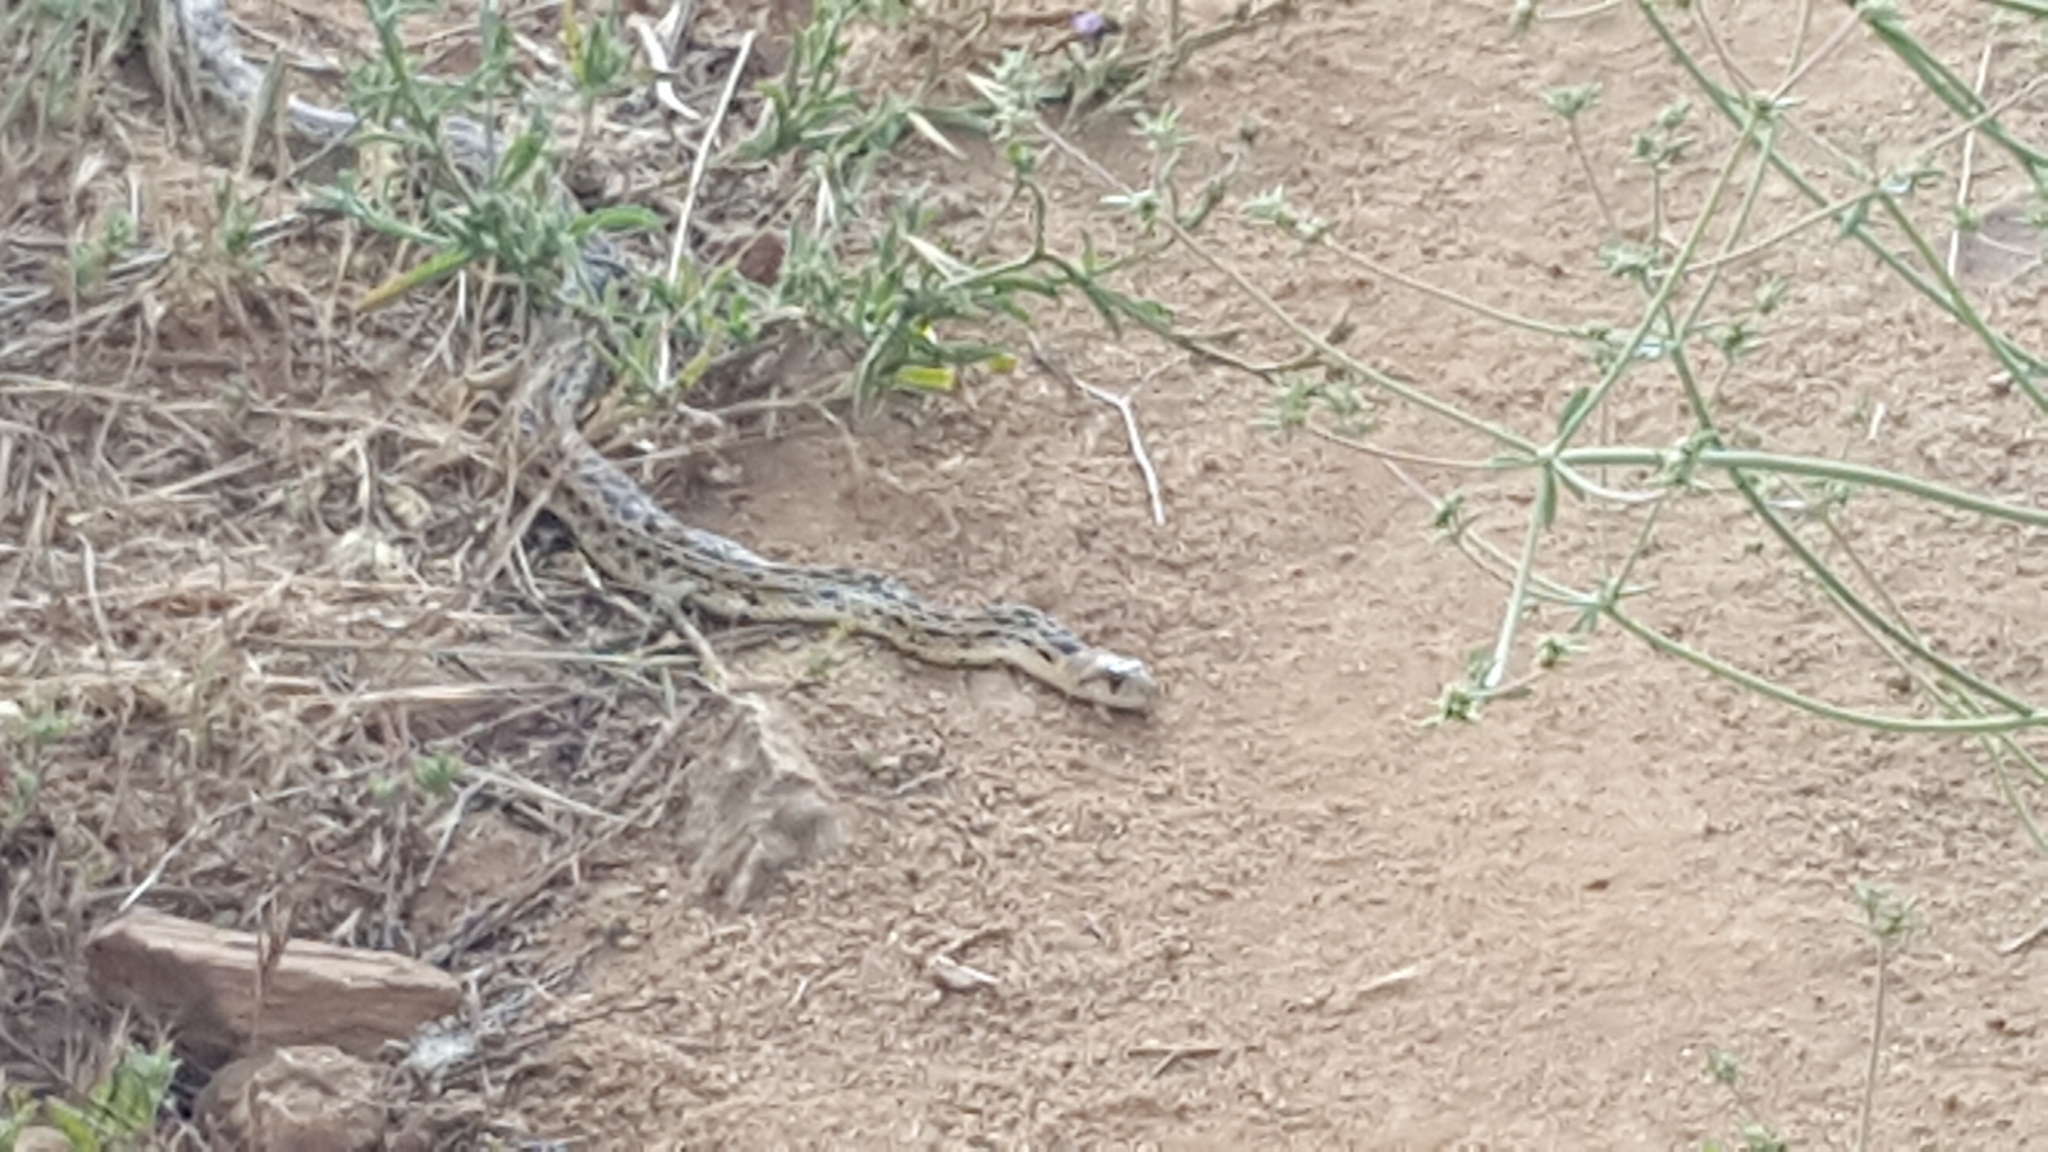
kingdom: Animalia
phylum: Chordata
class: Squamata
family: Colubridae
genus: Pituophis
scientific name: Pituophis catenifer
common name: Gopher snake
